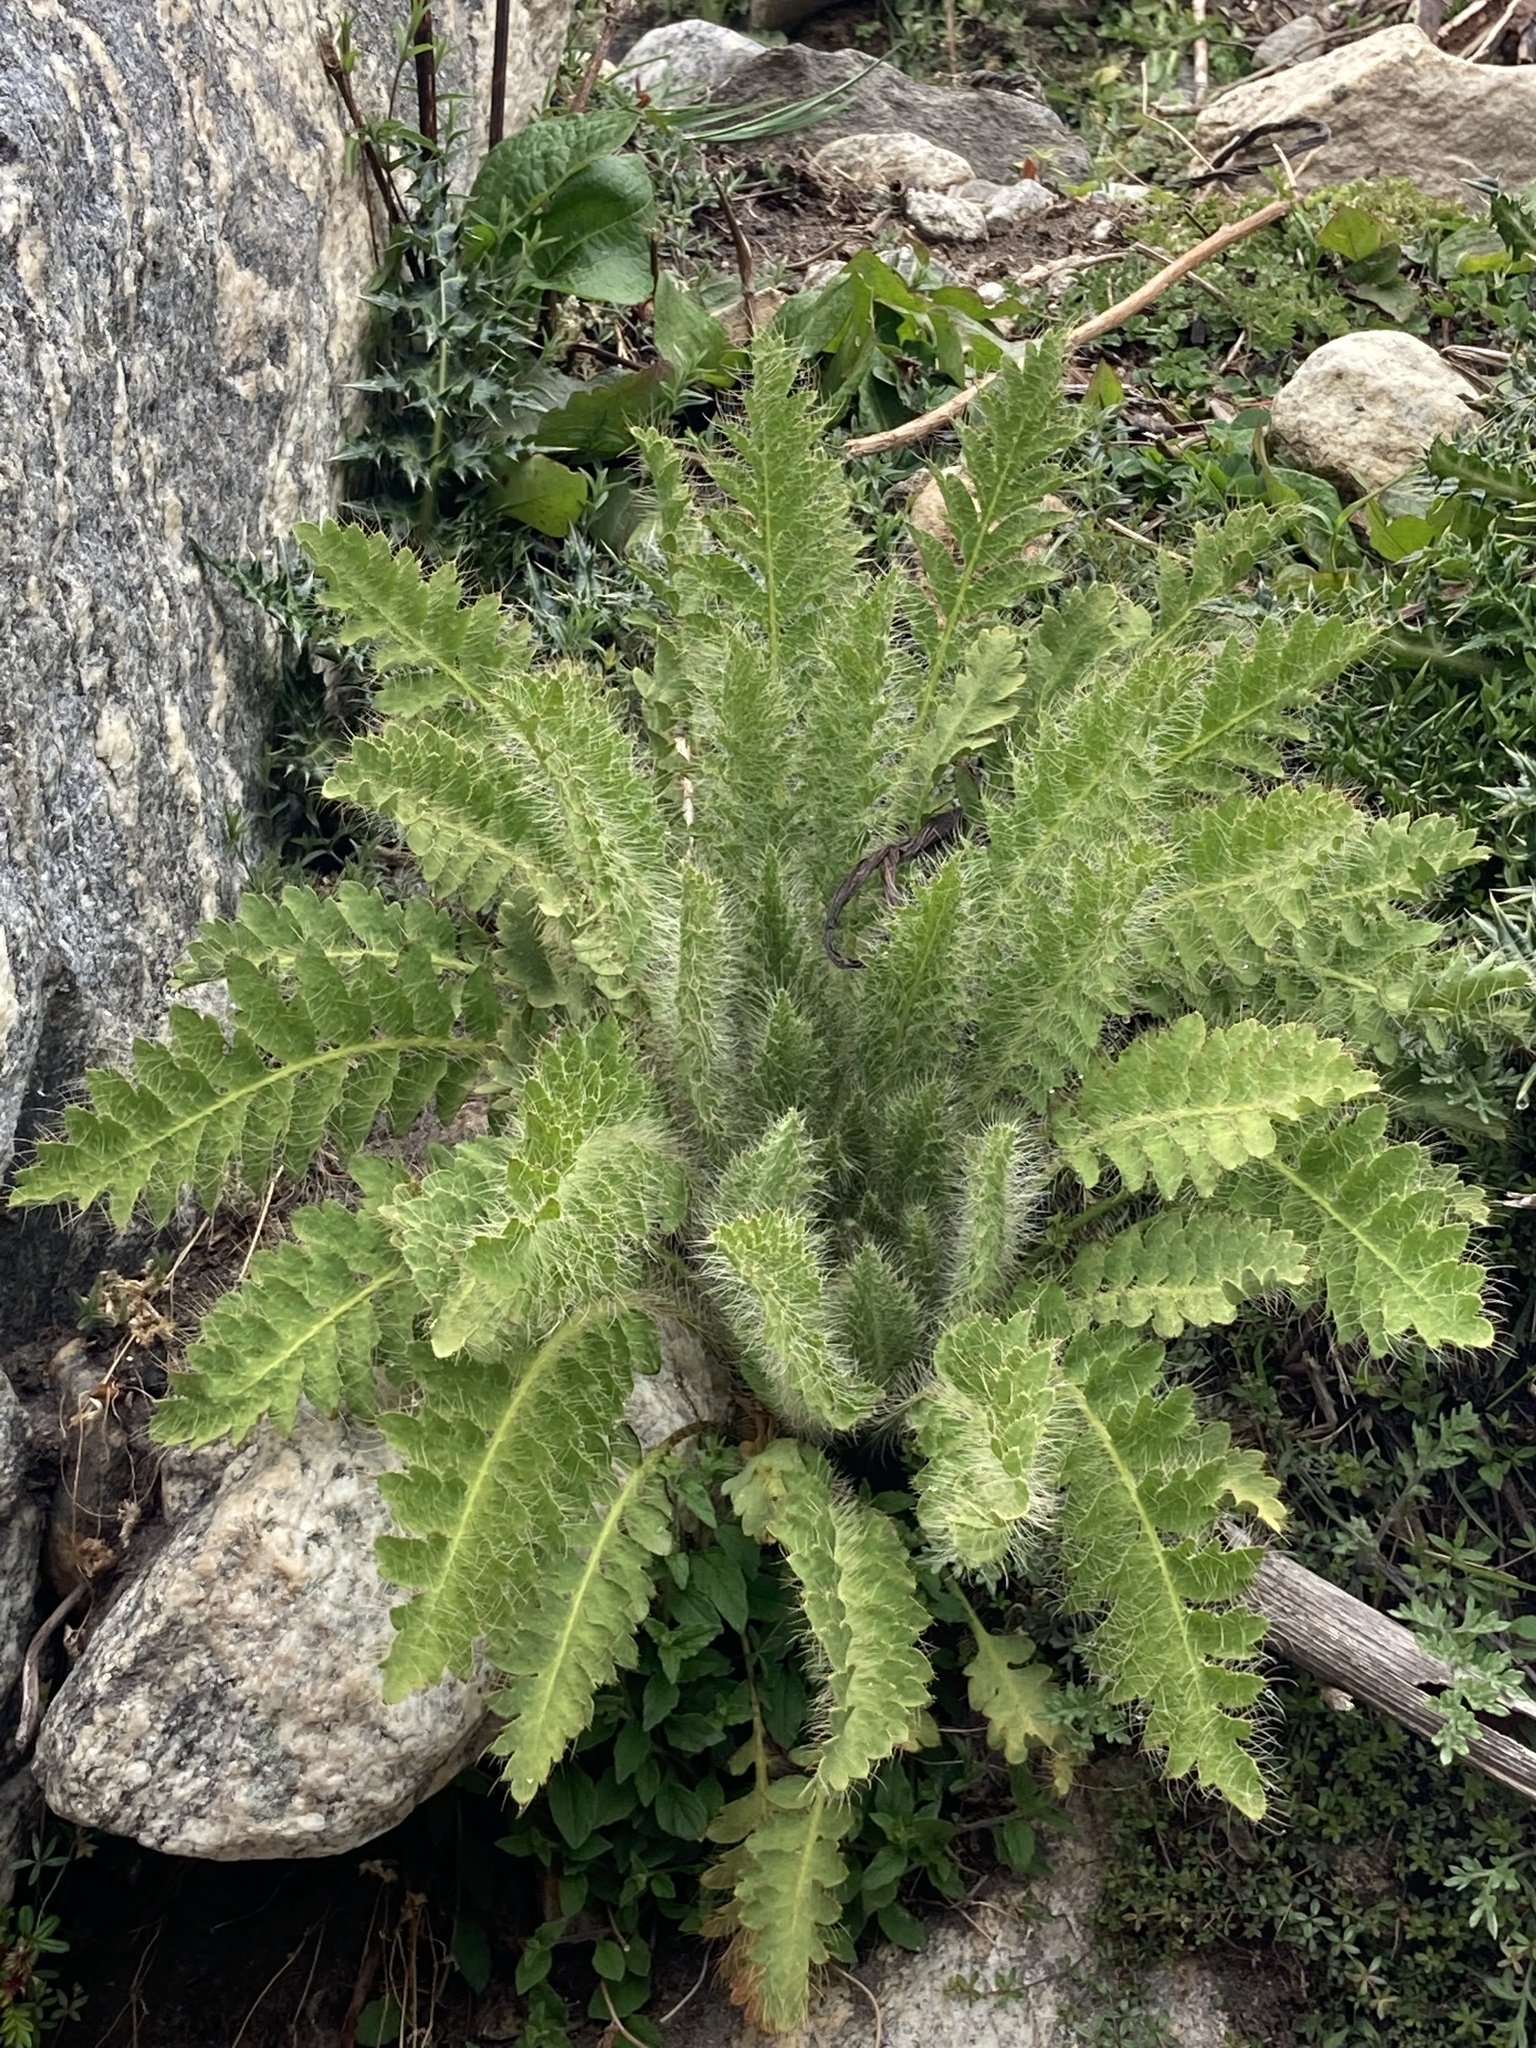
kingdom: Plantae
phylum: Tracheophyta
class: Magnoliopsida
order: Ranunculales
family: Papaveraceae
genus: Meconopsis
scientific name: Meconopsis napaulensis
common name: Satin-poppy
